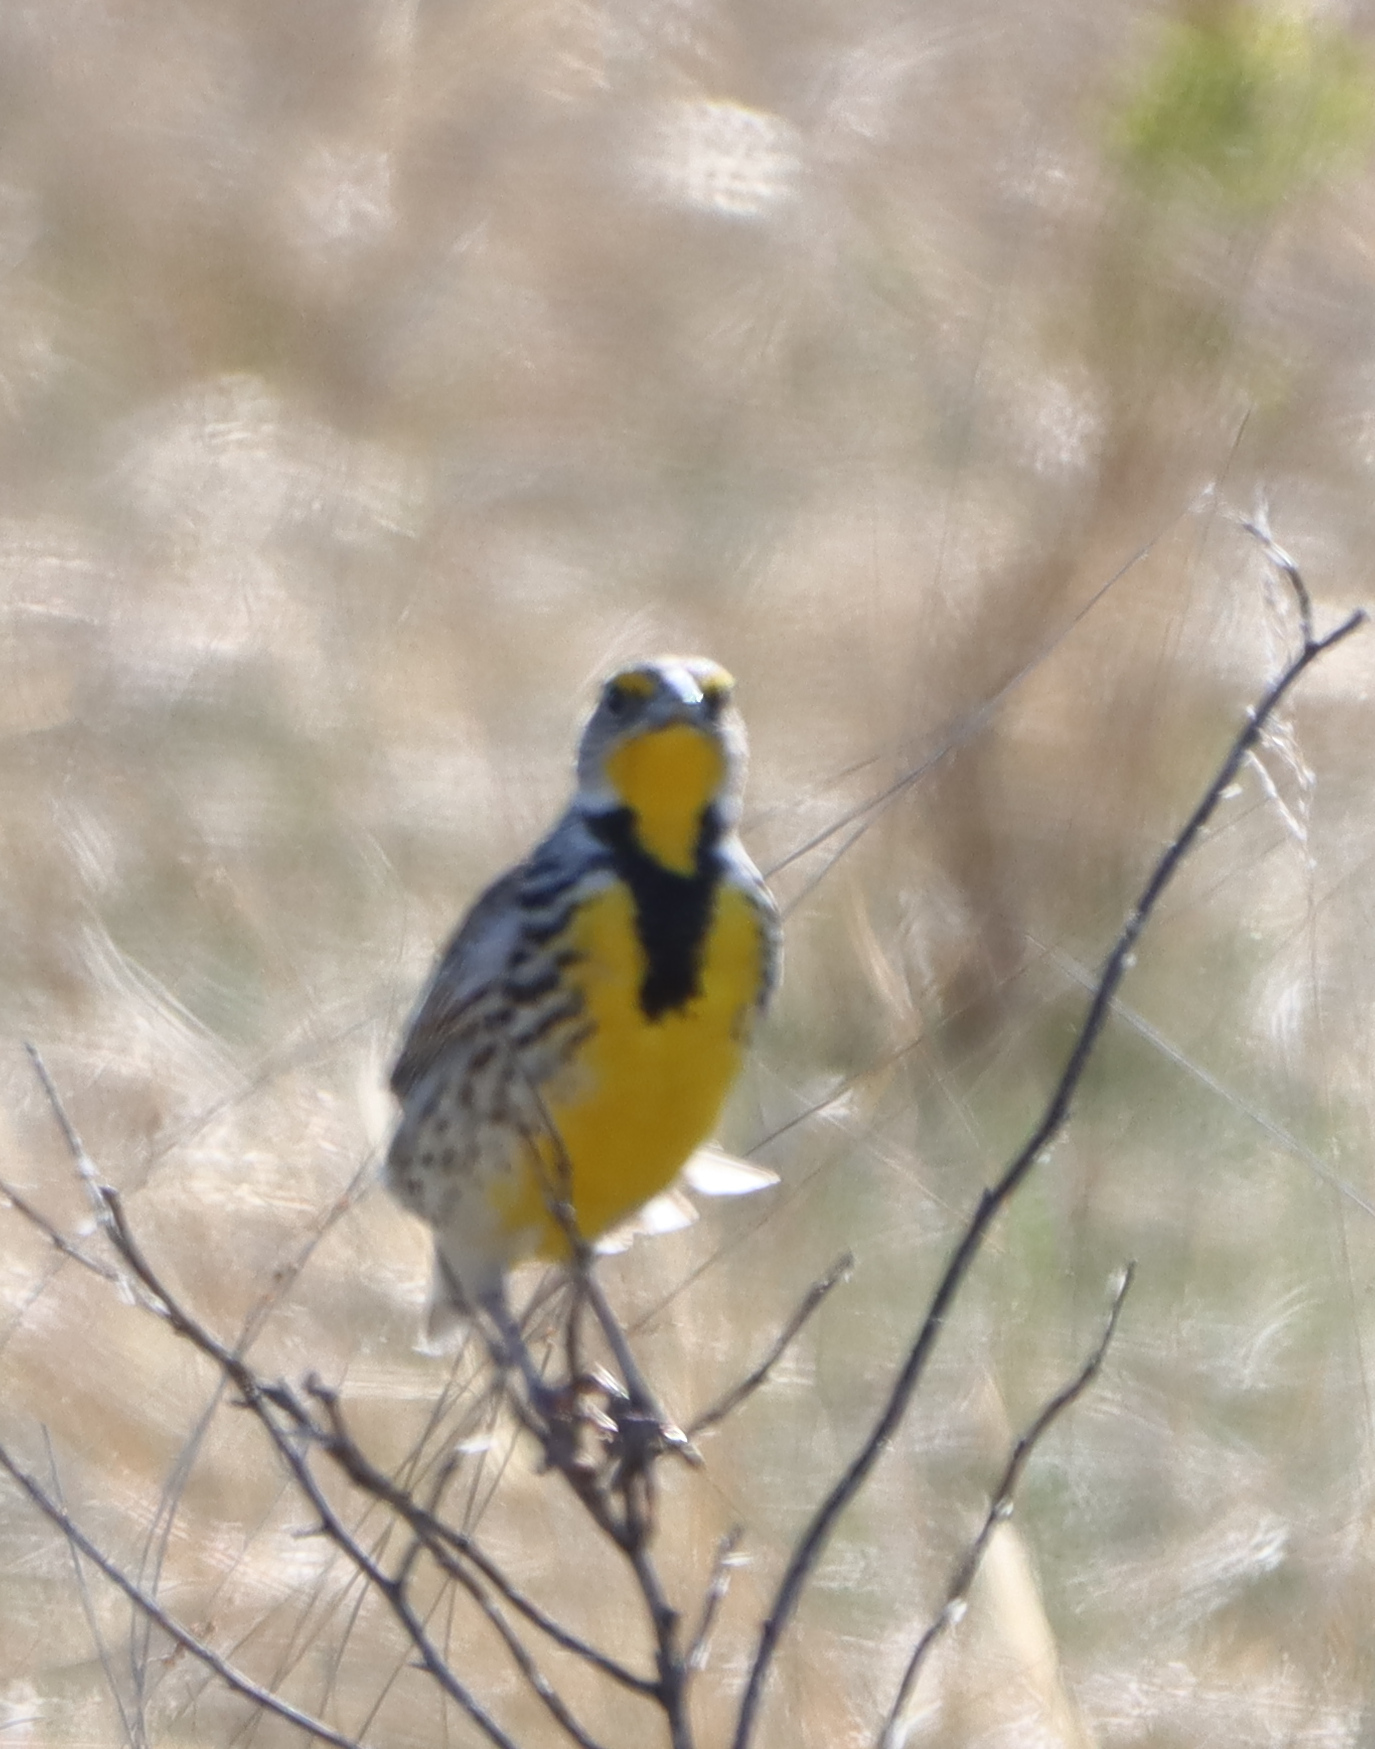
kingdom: Animalia
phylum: Chordata
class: Aves
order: Passeriformes
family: Icteridae
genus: Sturnella
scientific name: Sturnella neglecta
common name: Western meadowlark
